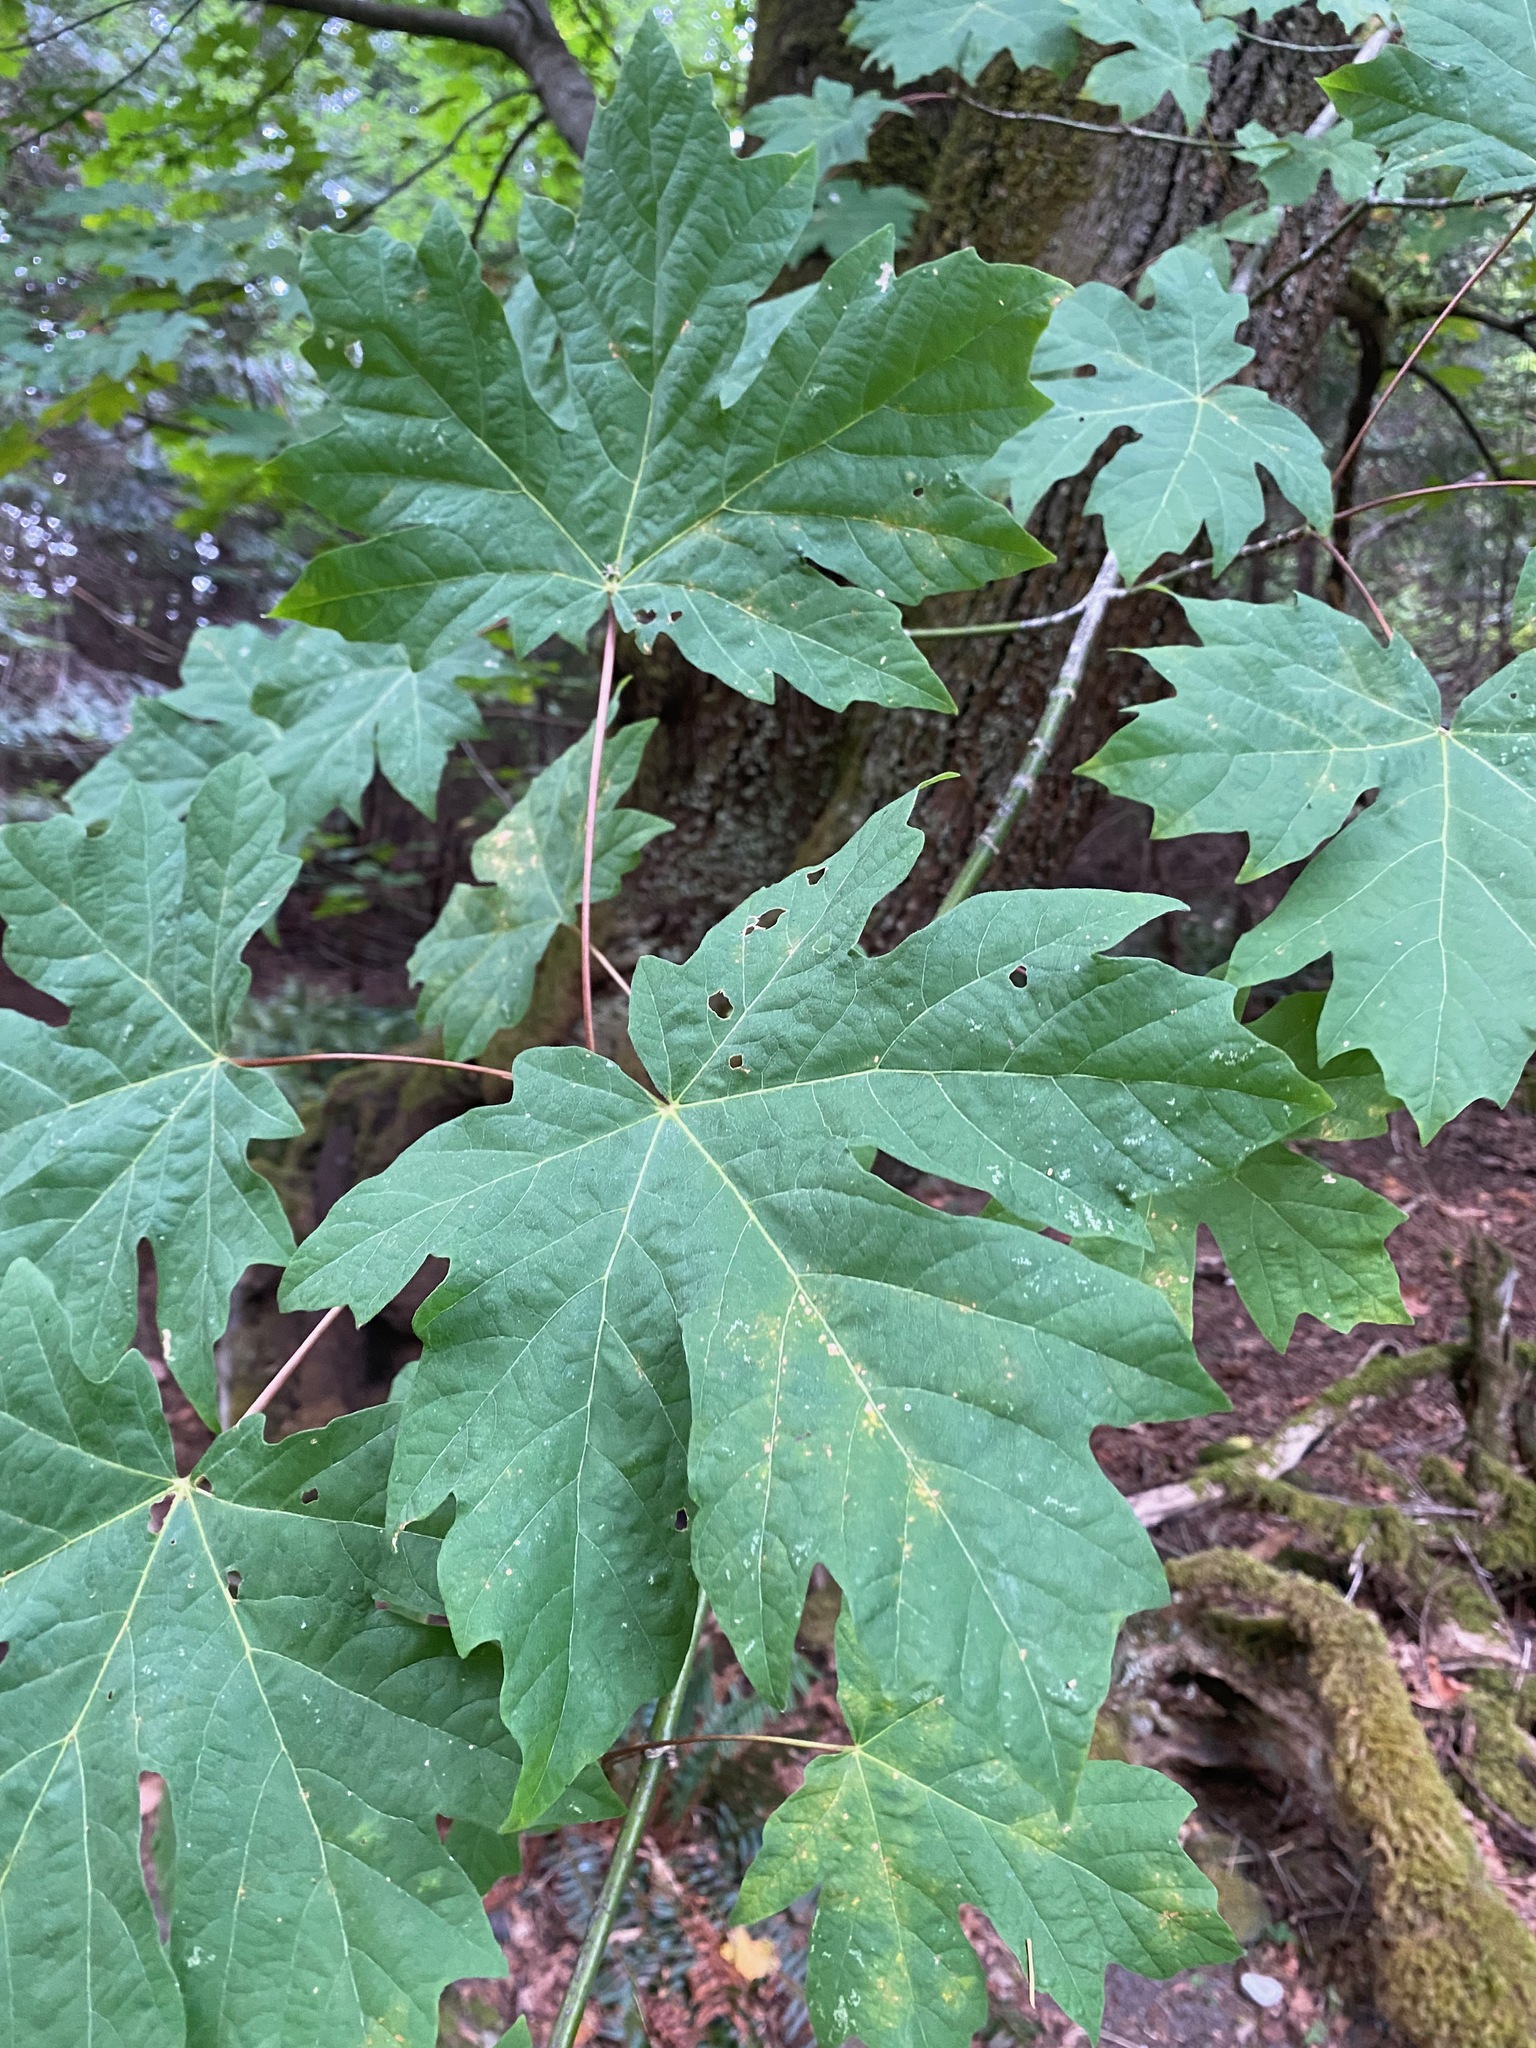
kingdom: Plantae
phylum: Tracheophyta
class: Magnoliopsida
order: Sapindales
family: Sapindaceae
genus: Acer
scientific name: Acer macrophyllum
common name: Oregon maple
